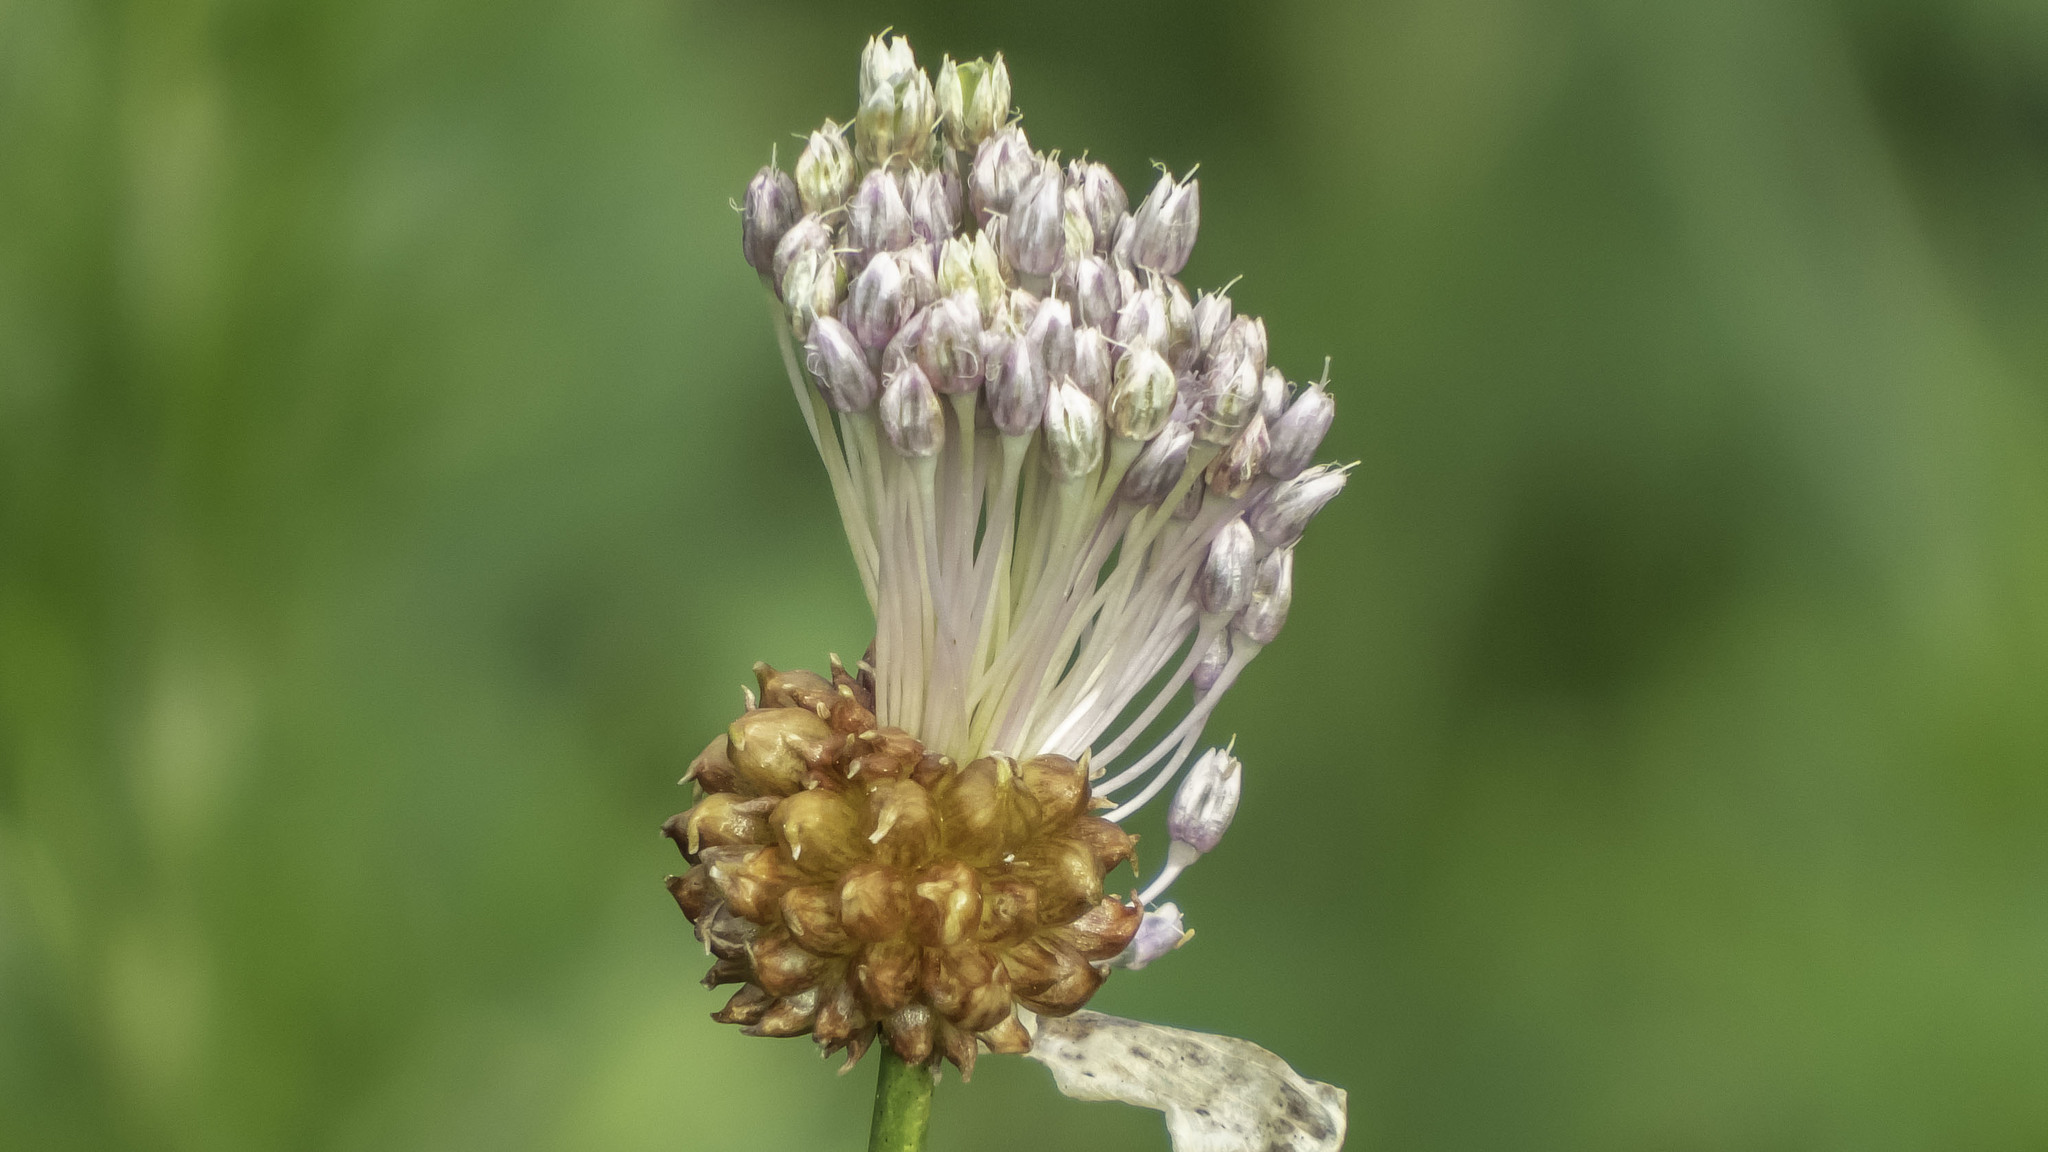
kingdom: Plantae
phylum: Tracheophyta
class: Liliopsida
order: Asparagales
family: Amaryllidaceae
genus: Allium
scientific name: Allium vineale
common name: Crow garlic
